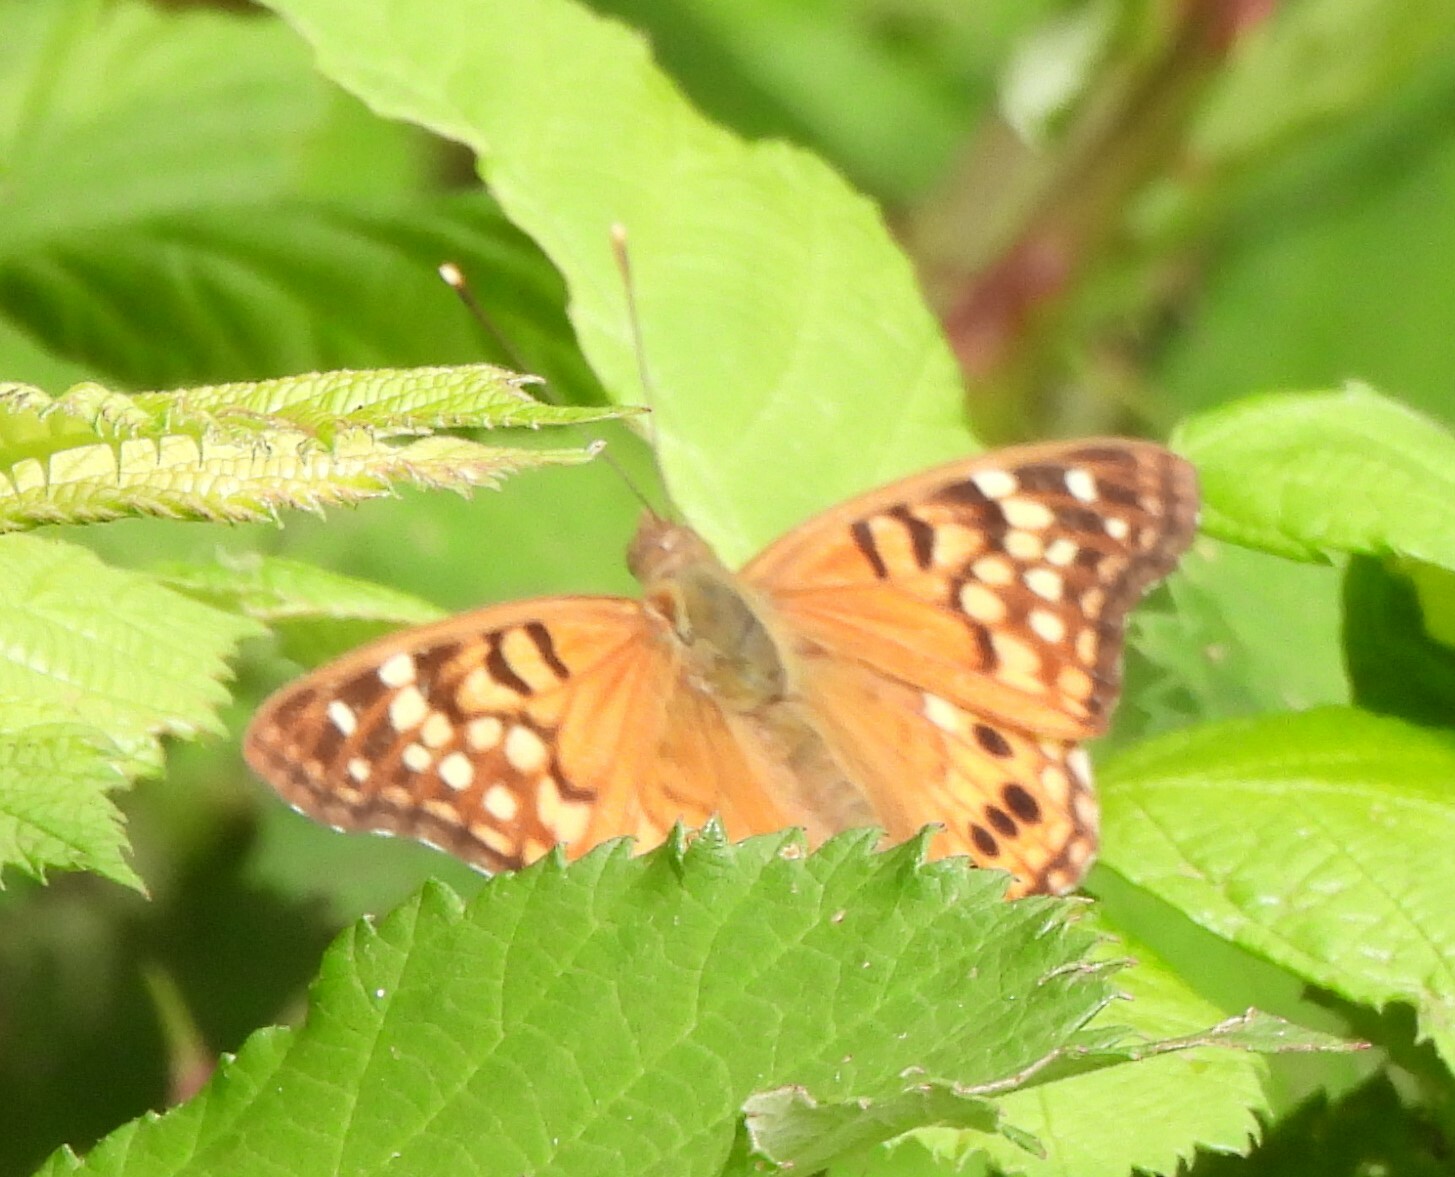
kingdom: Animalia
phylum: Arthropoda
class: Insecta
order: Lepidoptera
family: Nymphalidae
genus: Asterocampa
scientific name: Asterocampa clyton
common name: Tawny emperor
